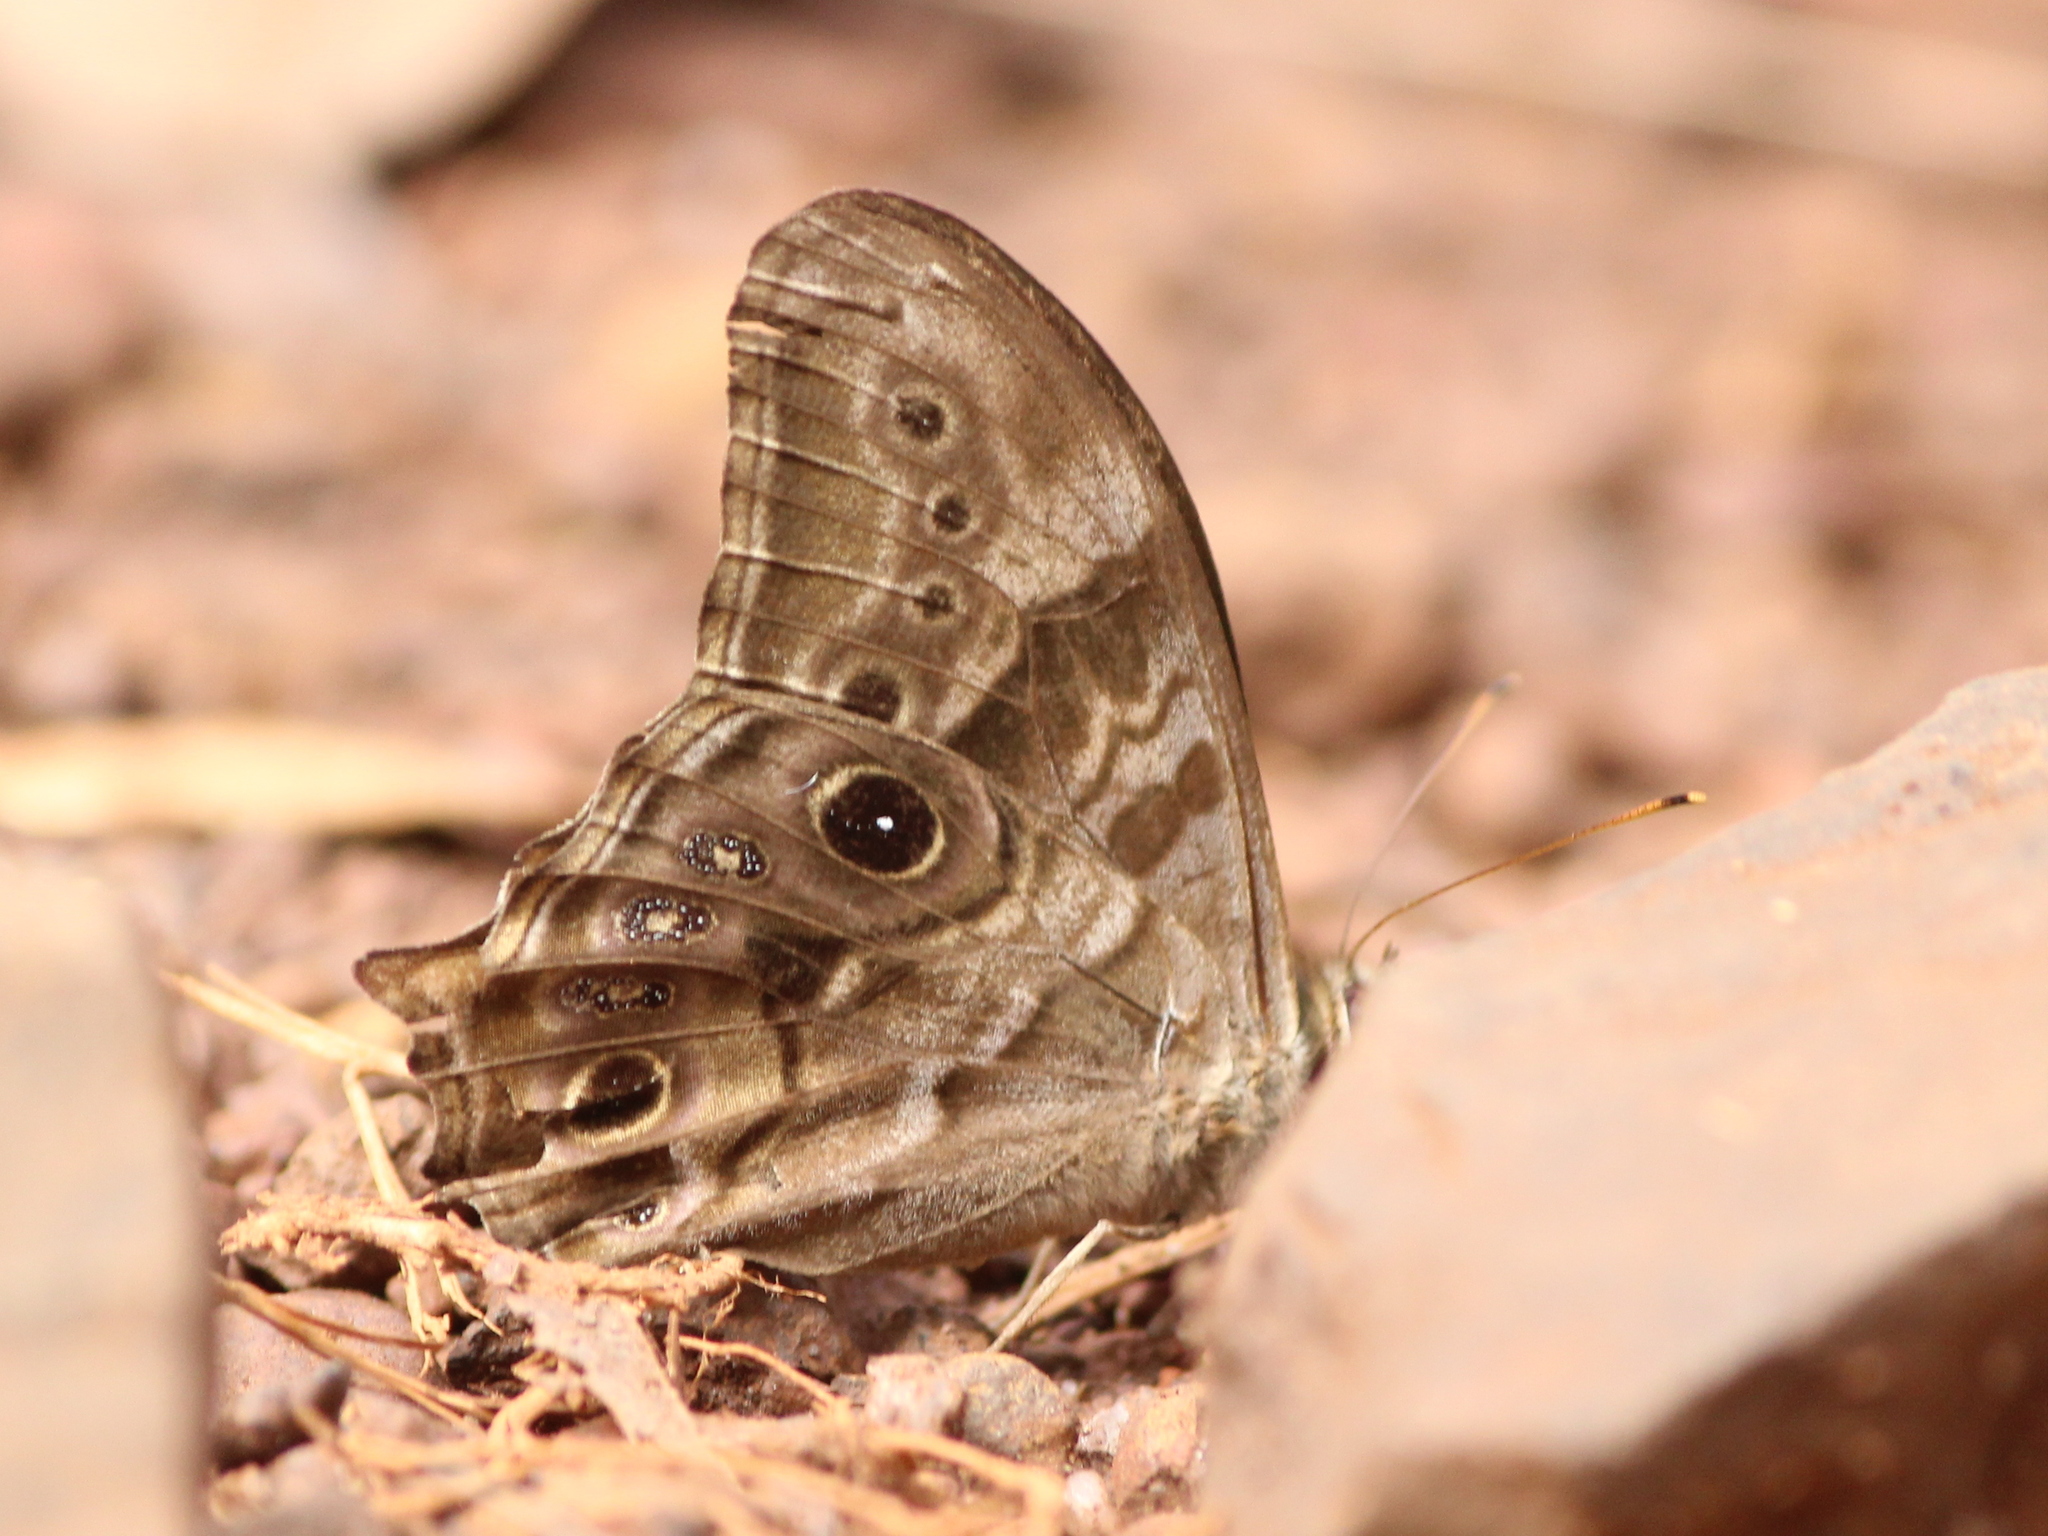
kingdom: Animalia
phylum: Arthropoda
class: Insecta
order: Lepidoptera
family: Nymphalidae
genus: Lethe
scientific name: Lethe drypetis
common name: Tamil treebrown
